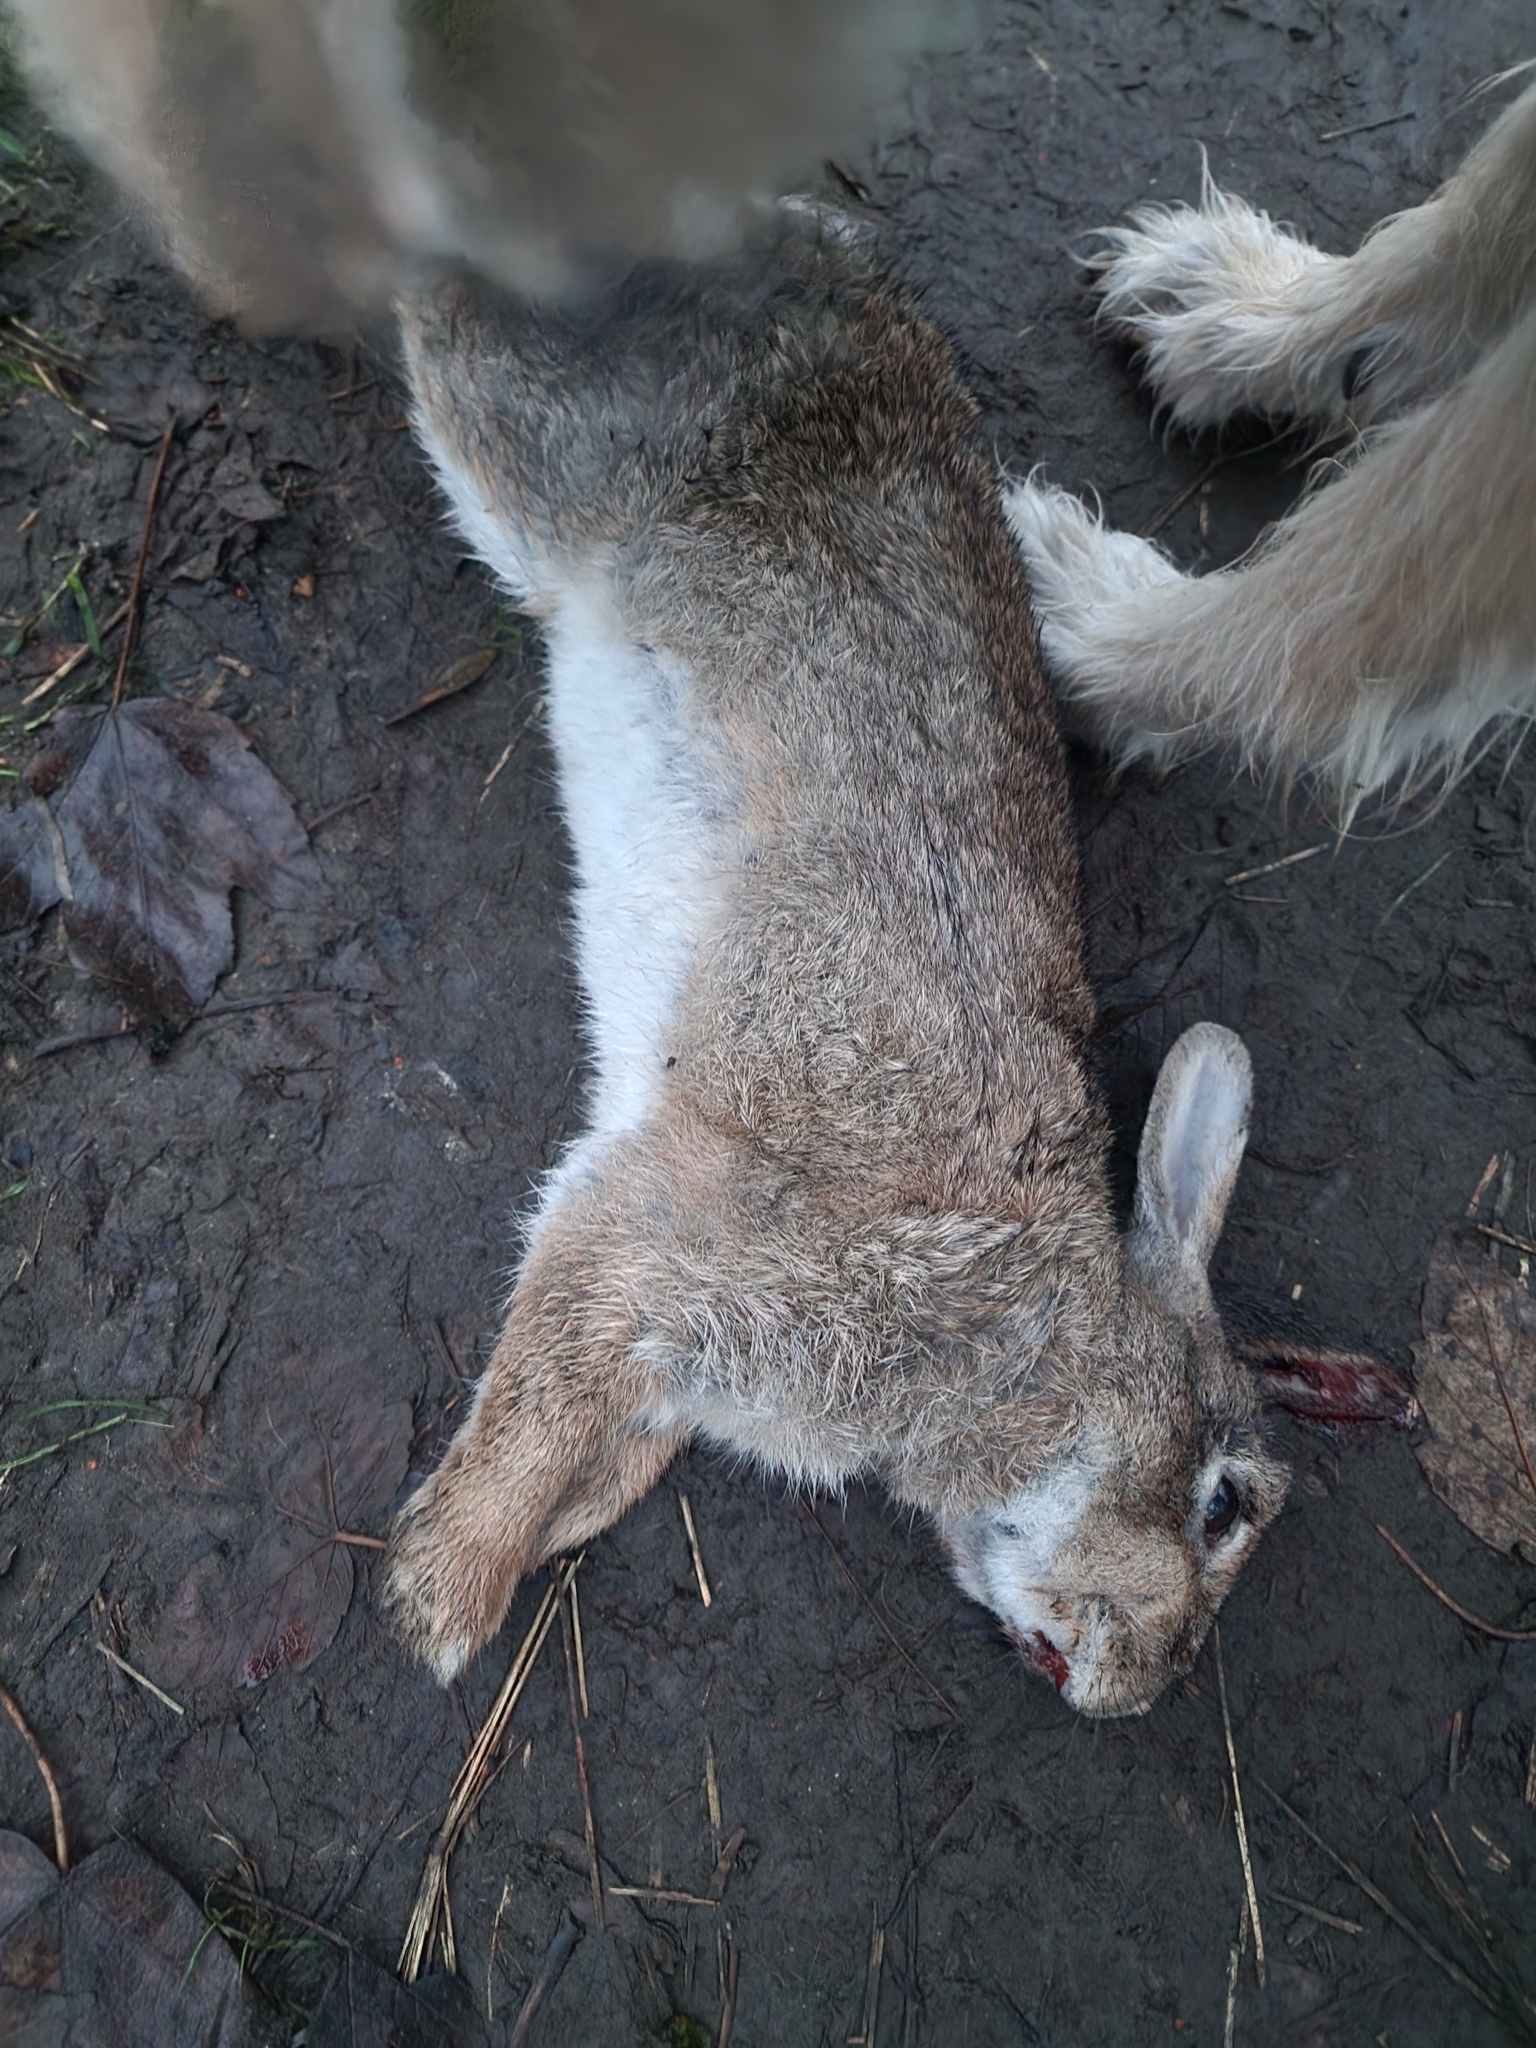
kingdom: Animalia
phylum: Chordata
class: Mammalia
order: Lagomorpha
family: Leporidae
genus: Oryctolagus
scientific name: Oryctolagus cuniculus
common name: European rabbit
